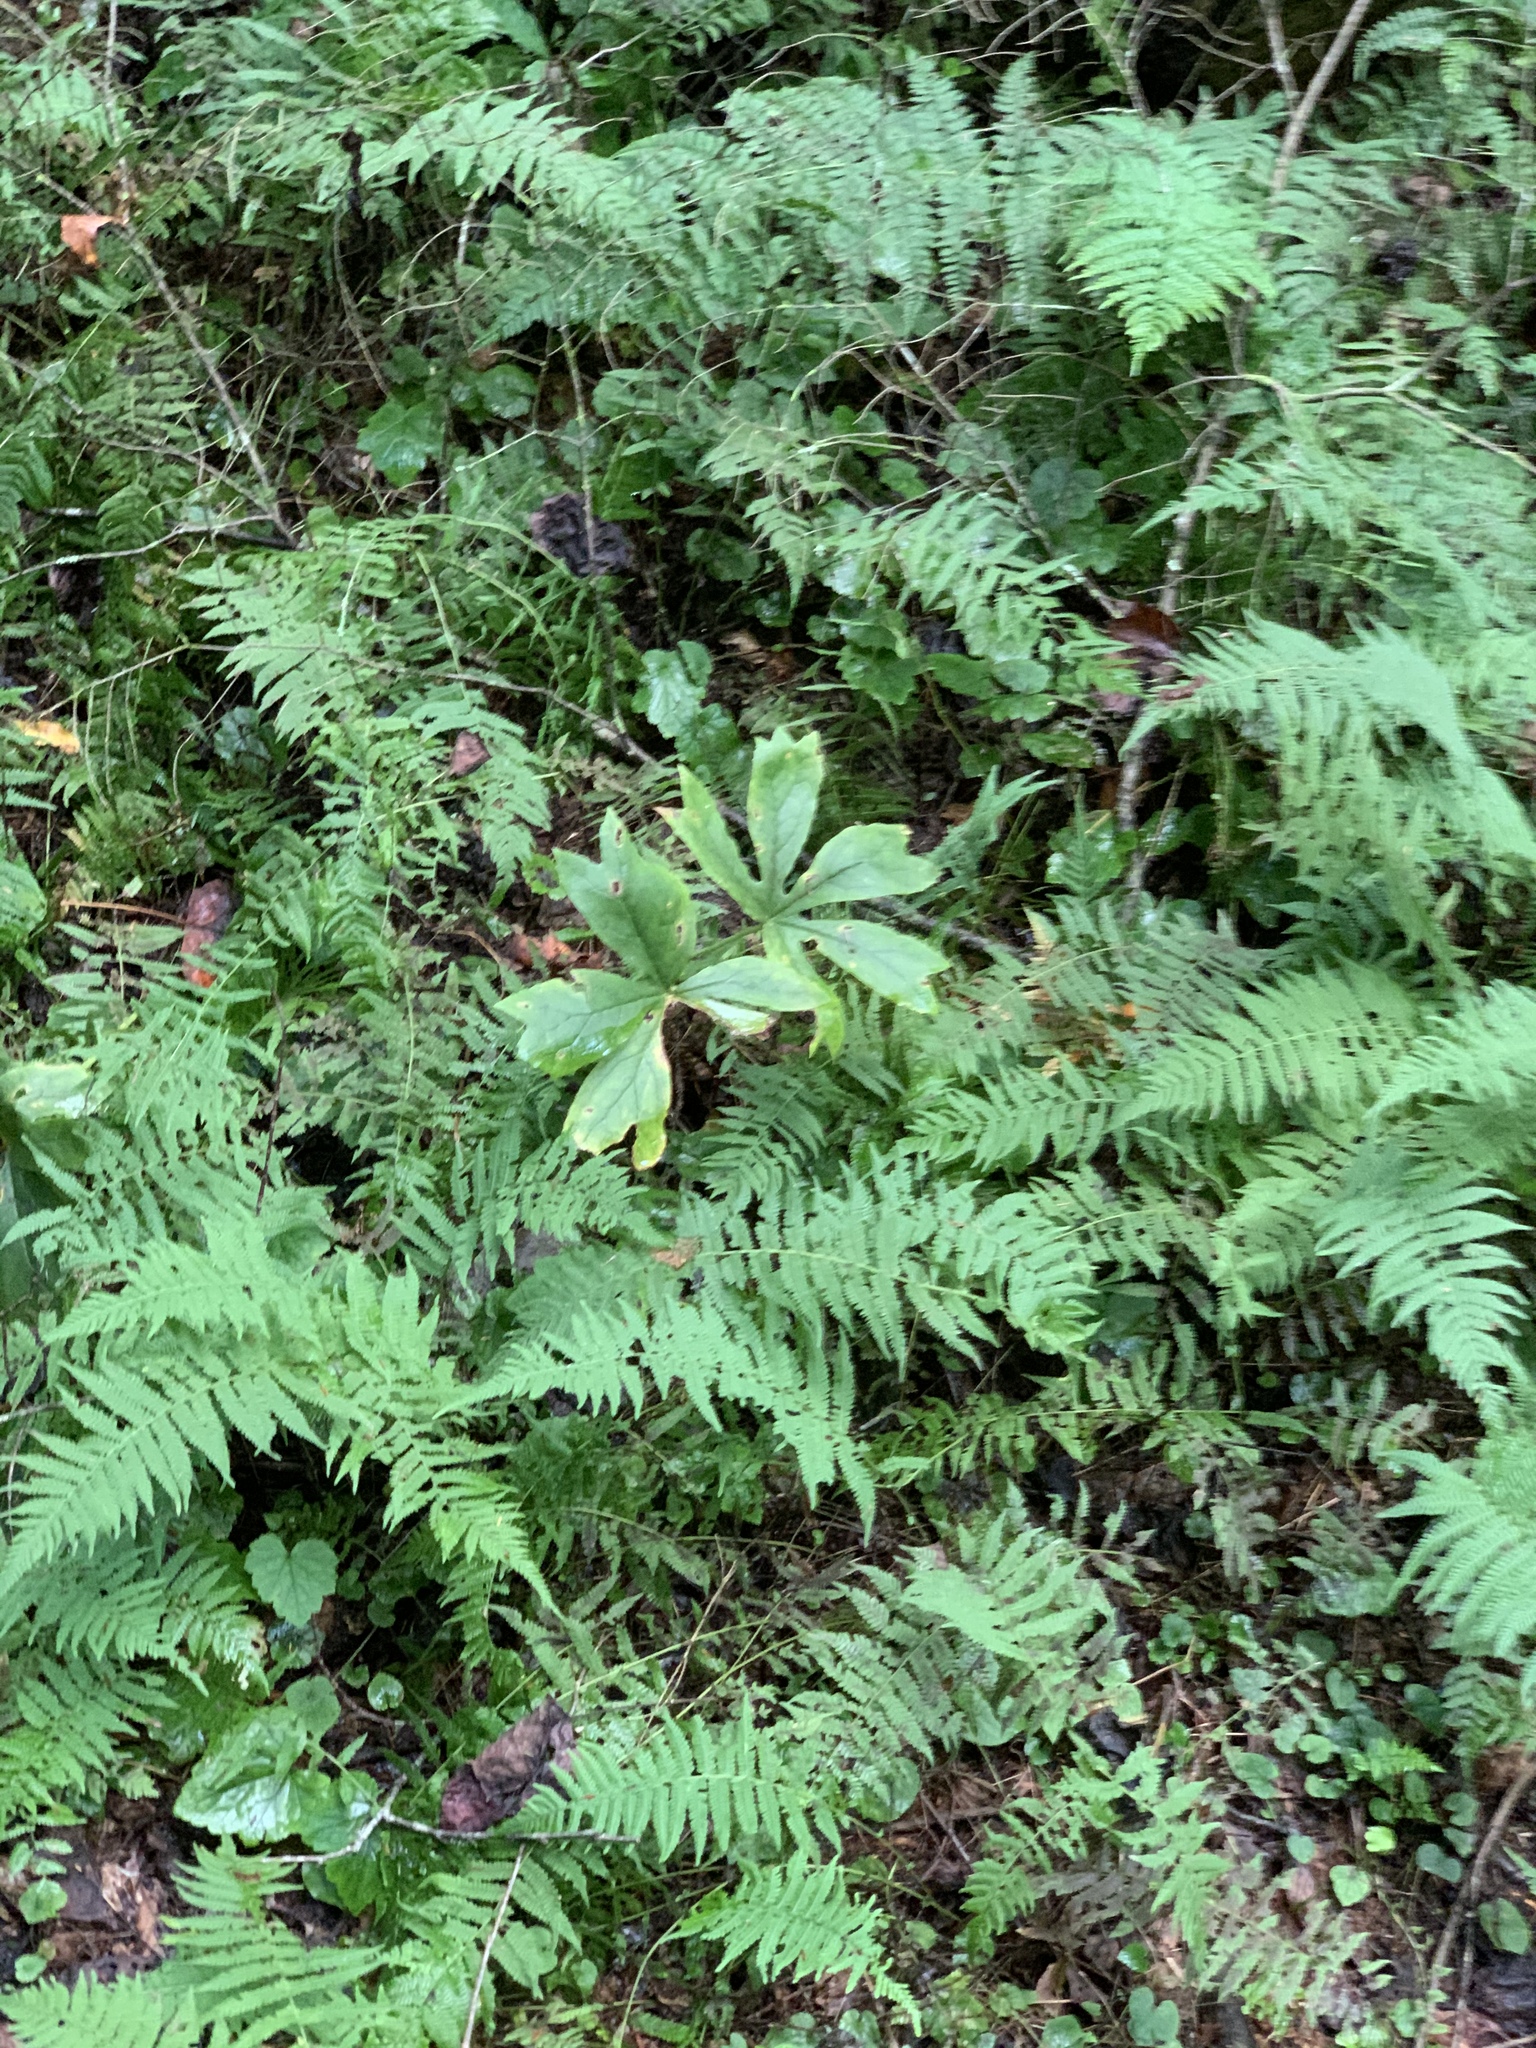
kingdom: Plantae
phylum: Tracheophyta
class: Magnoliopsida
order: Ranunculales
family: Berberidaceae
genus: Podophyllum
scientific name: Podophyllum peltatum
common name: Wild mandrake
